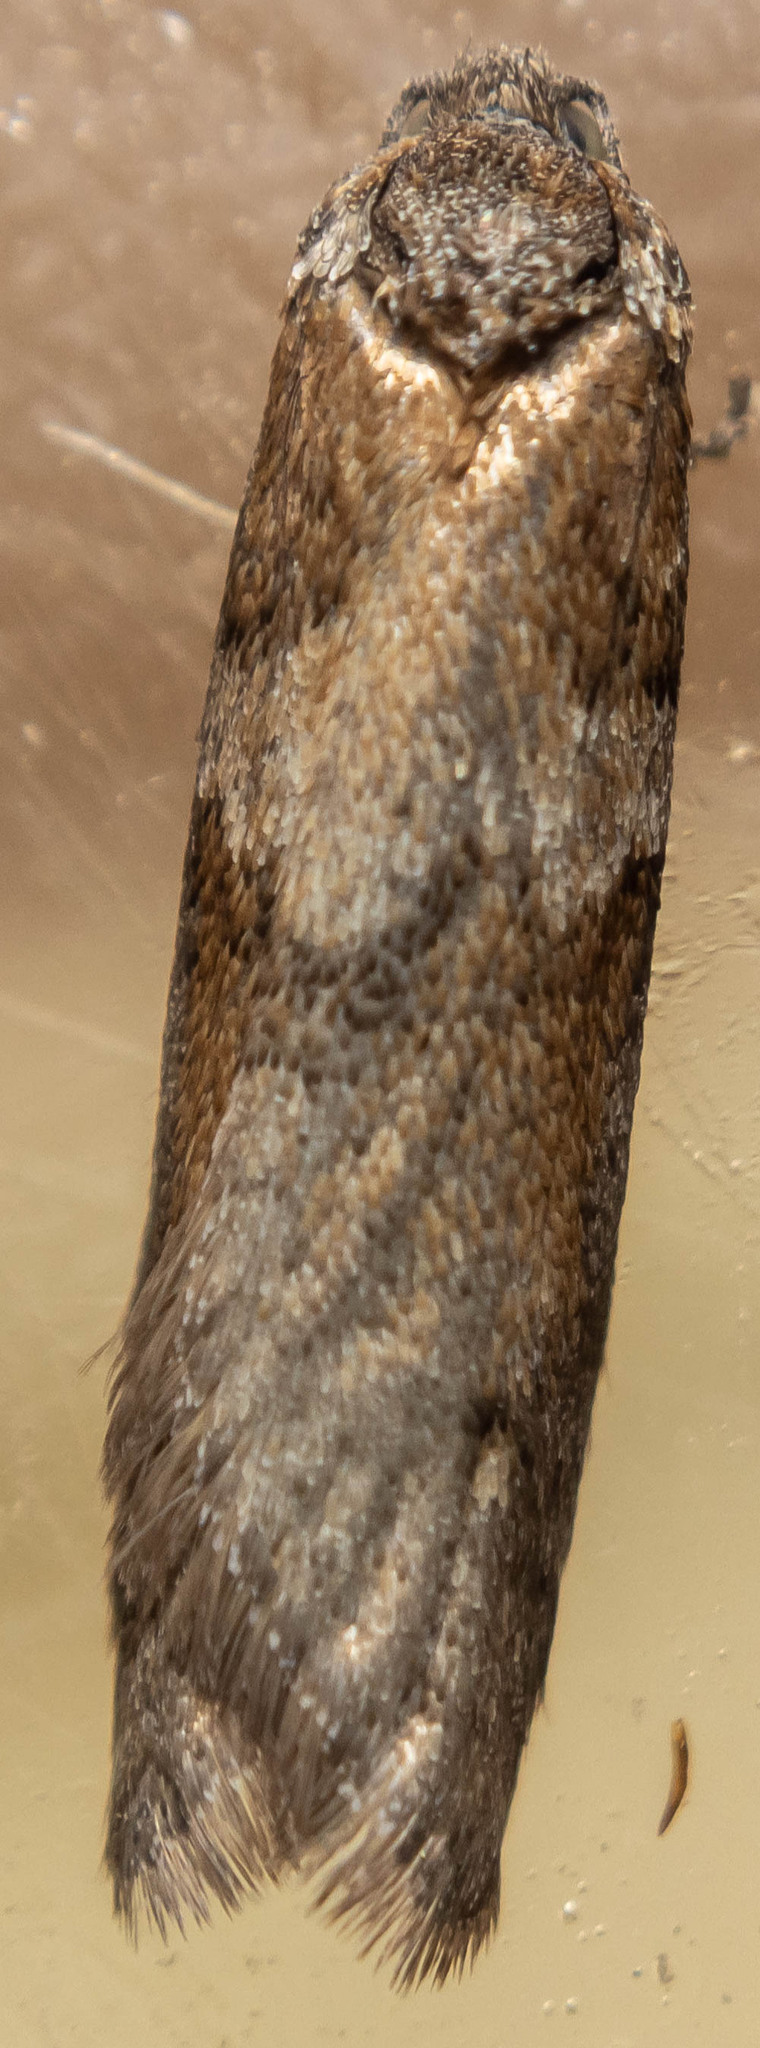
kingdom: Animalia
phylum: Arthropoda
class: Insecta
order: Lepidoptera
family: Tortricidae
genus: Tortricodes
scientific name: Tortricodes alternella
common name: Winter shade
